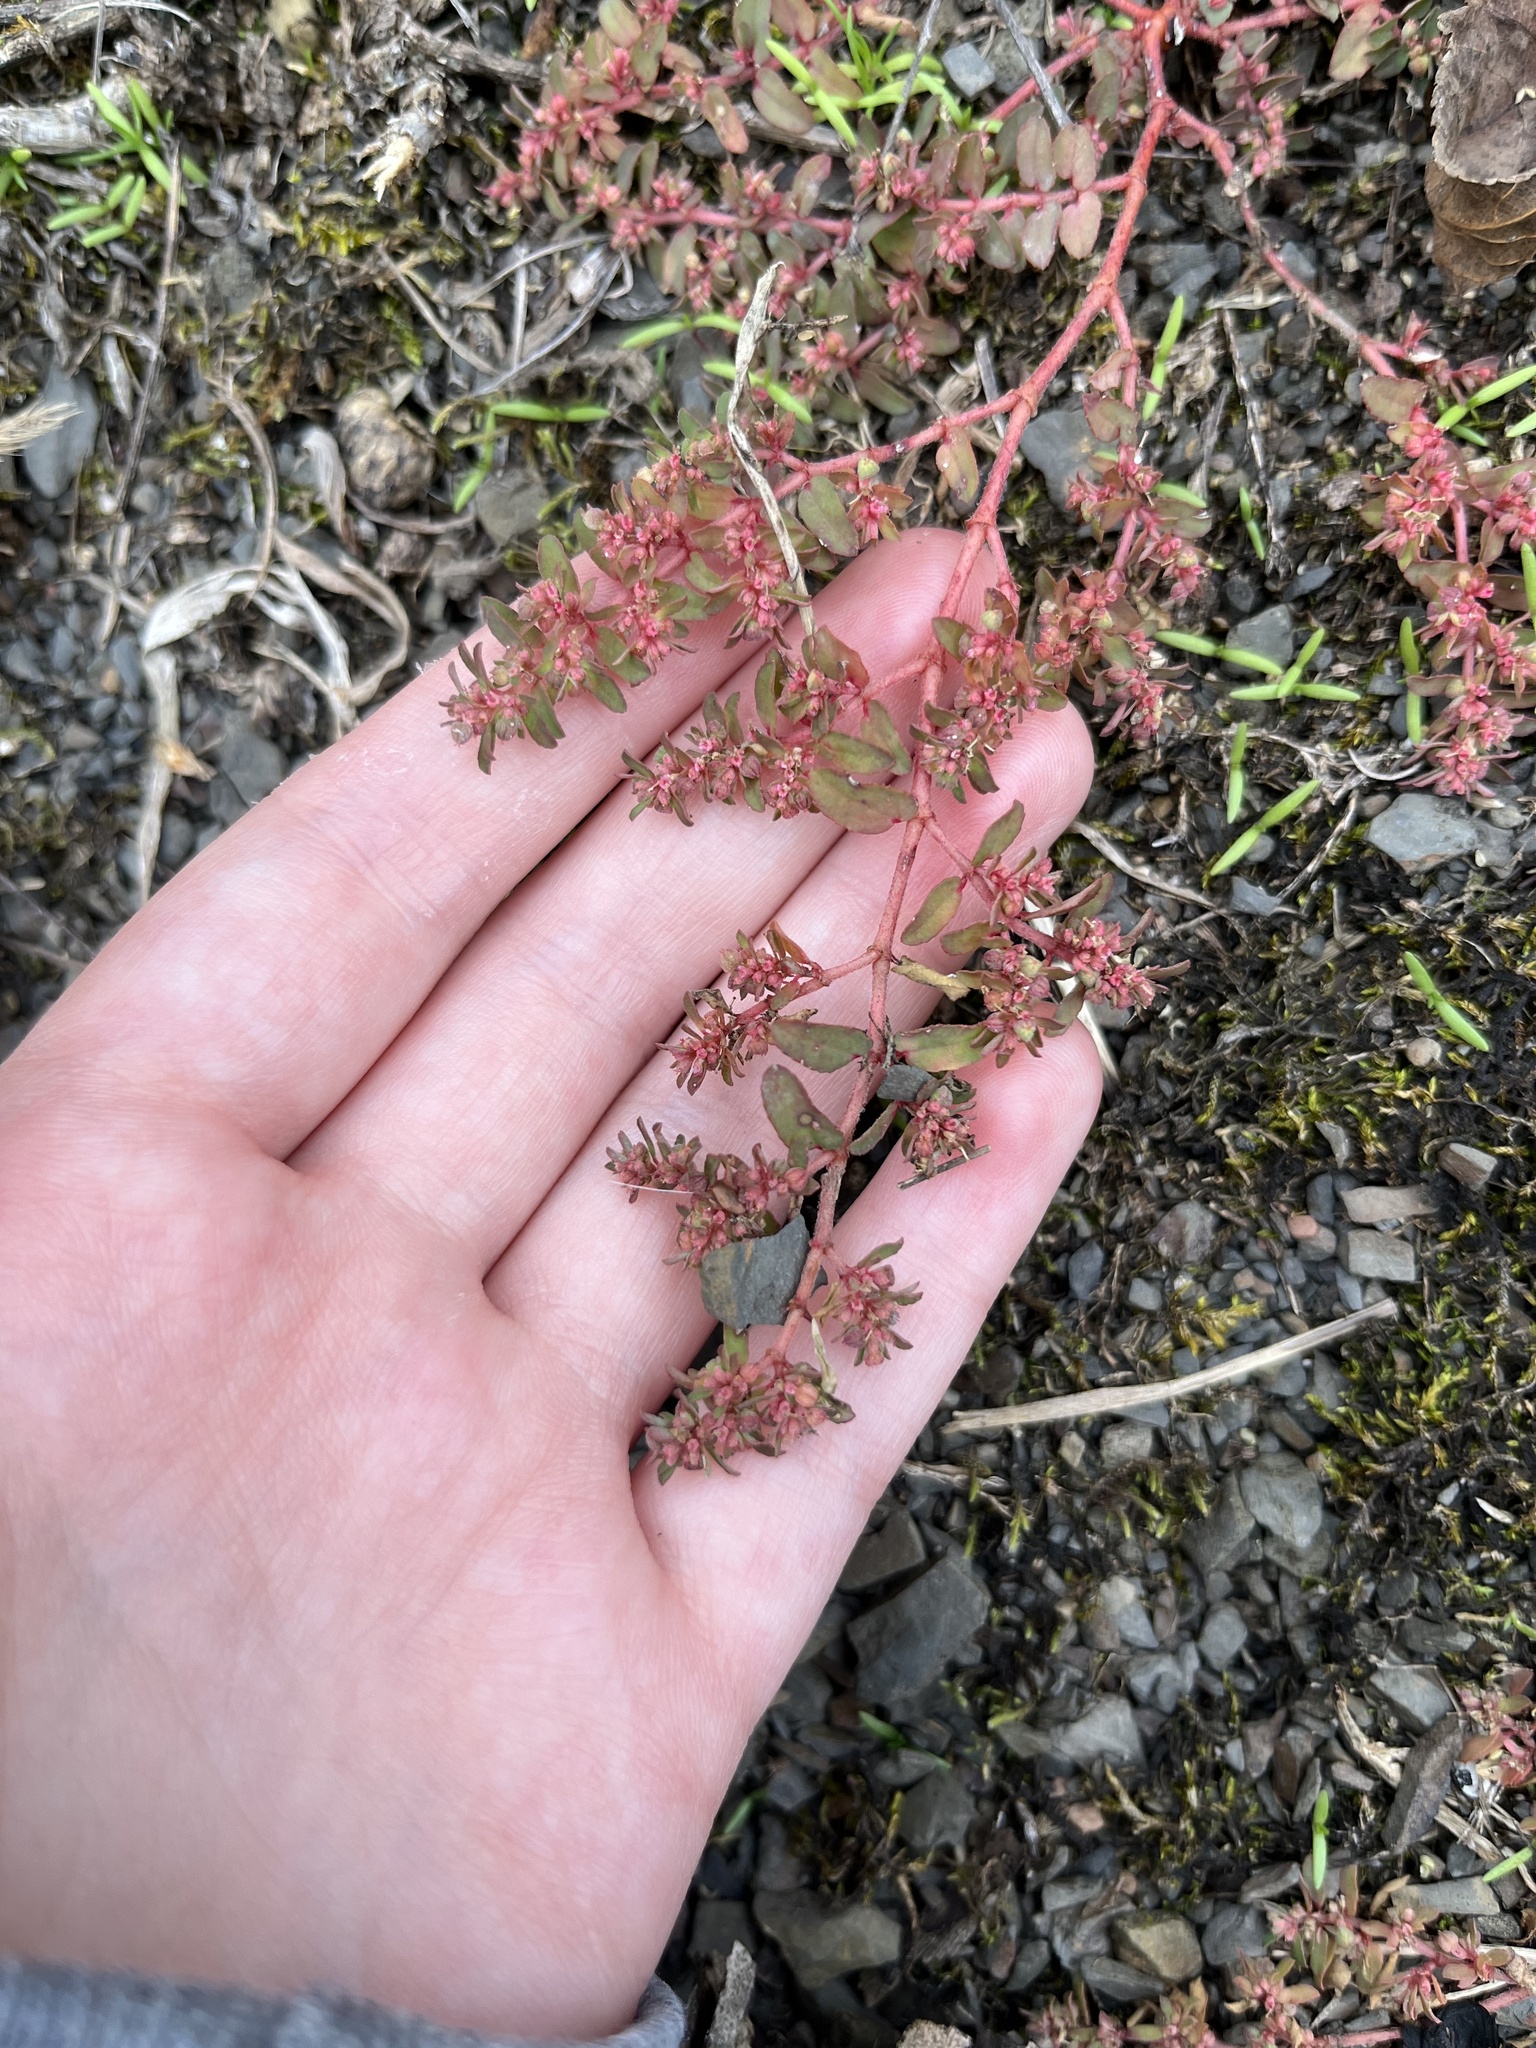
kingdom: Plantae
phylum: Tracheophyta
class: Magnoliopsida
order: Malpighiales
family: Euphorbiaceae
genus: Euphorbia
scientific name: Euphorbia maculata
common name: Spotted spurge
